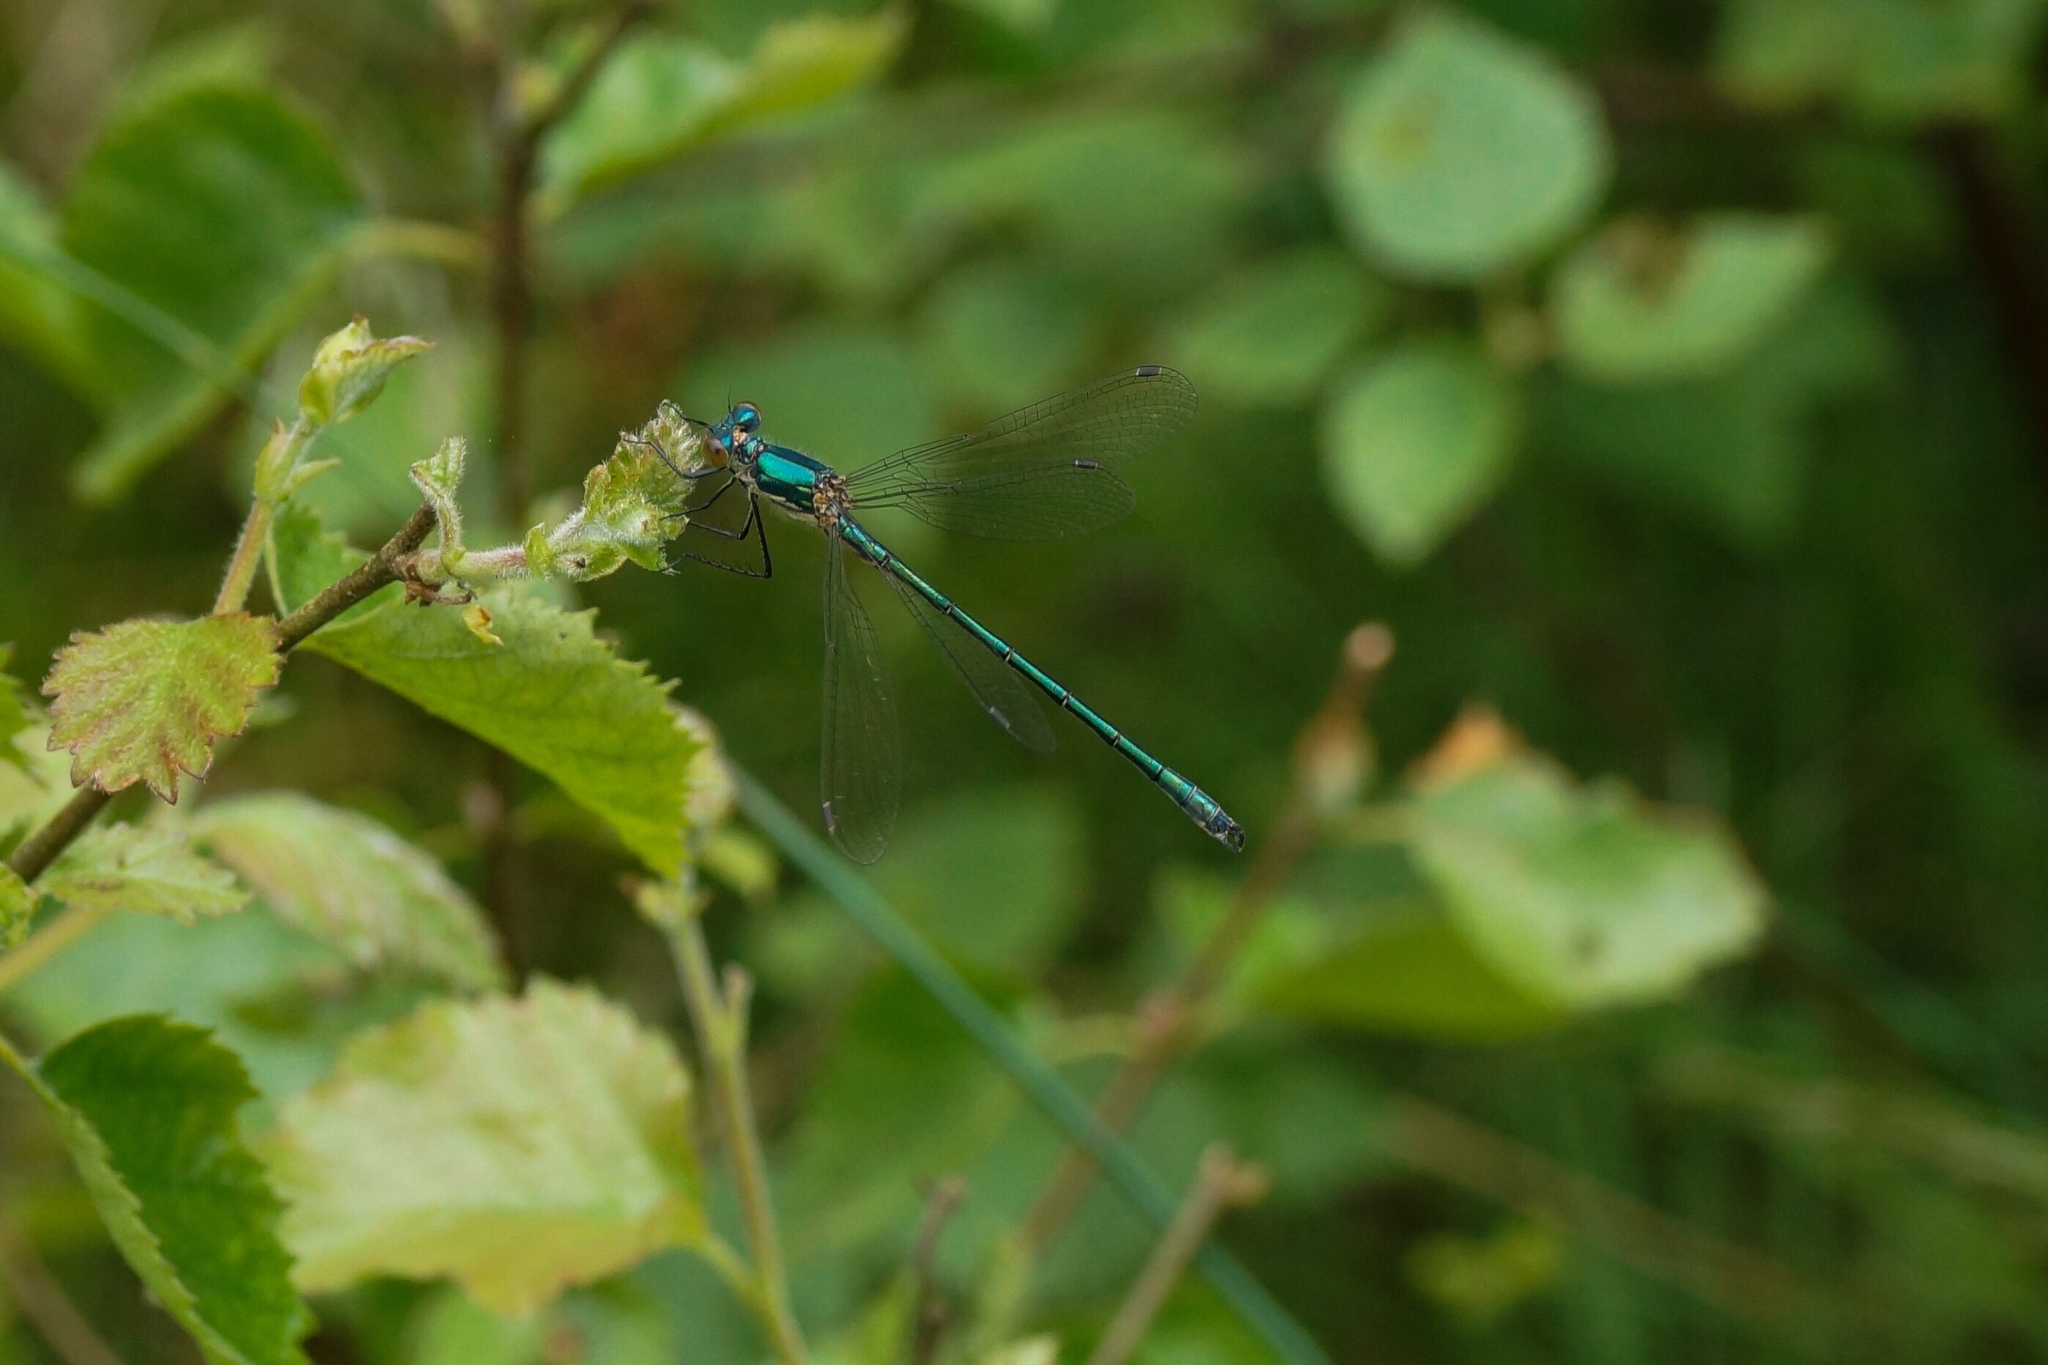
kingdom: Animalia
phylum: Arthropoda
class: Insecta
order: Odonata
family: Lestidae
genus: Lestes
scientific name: Lestes dryas
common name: Scarce emerald damselfly
